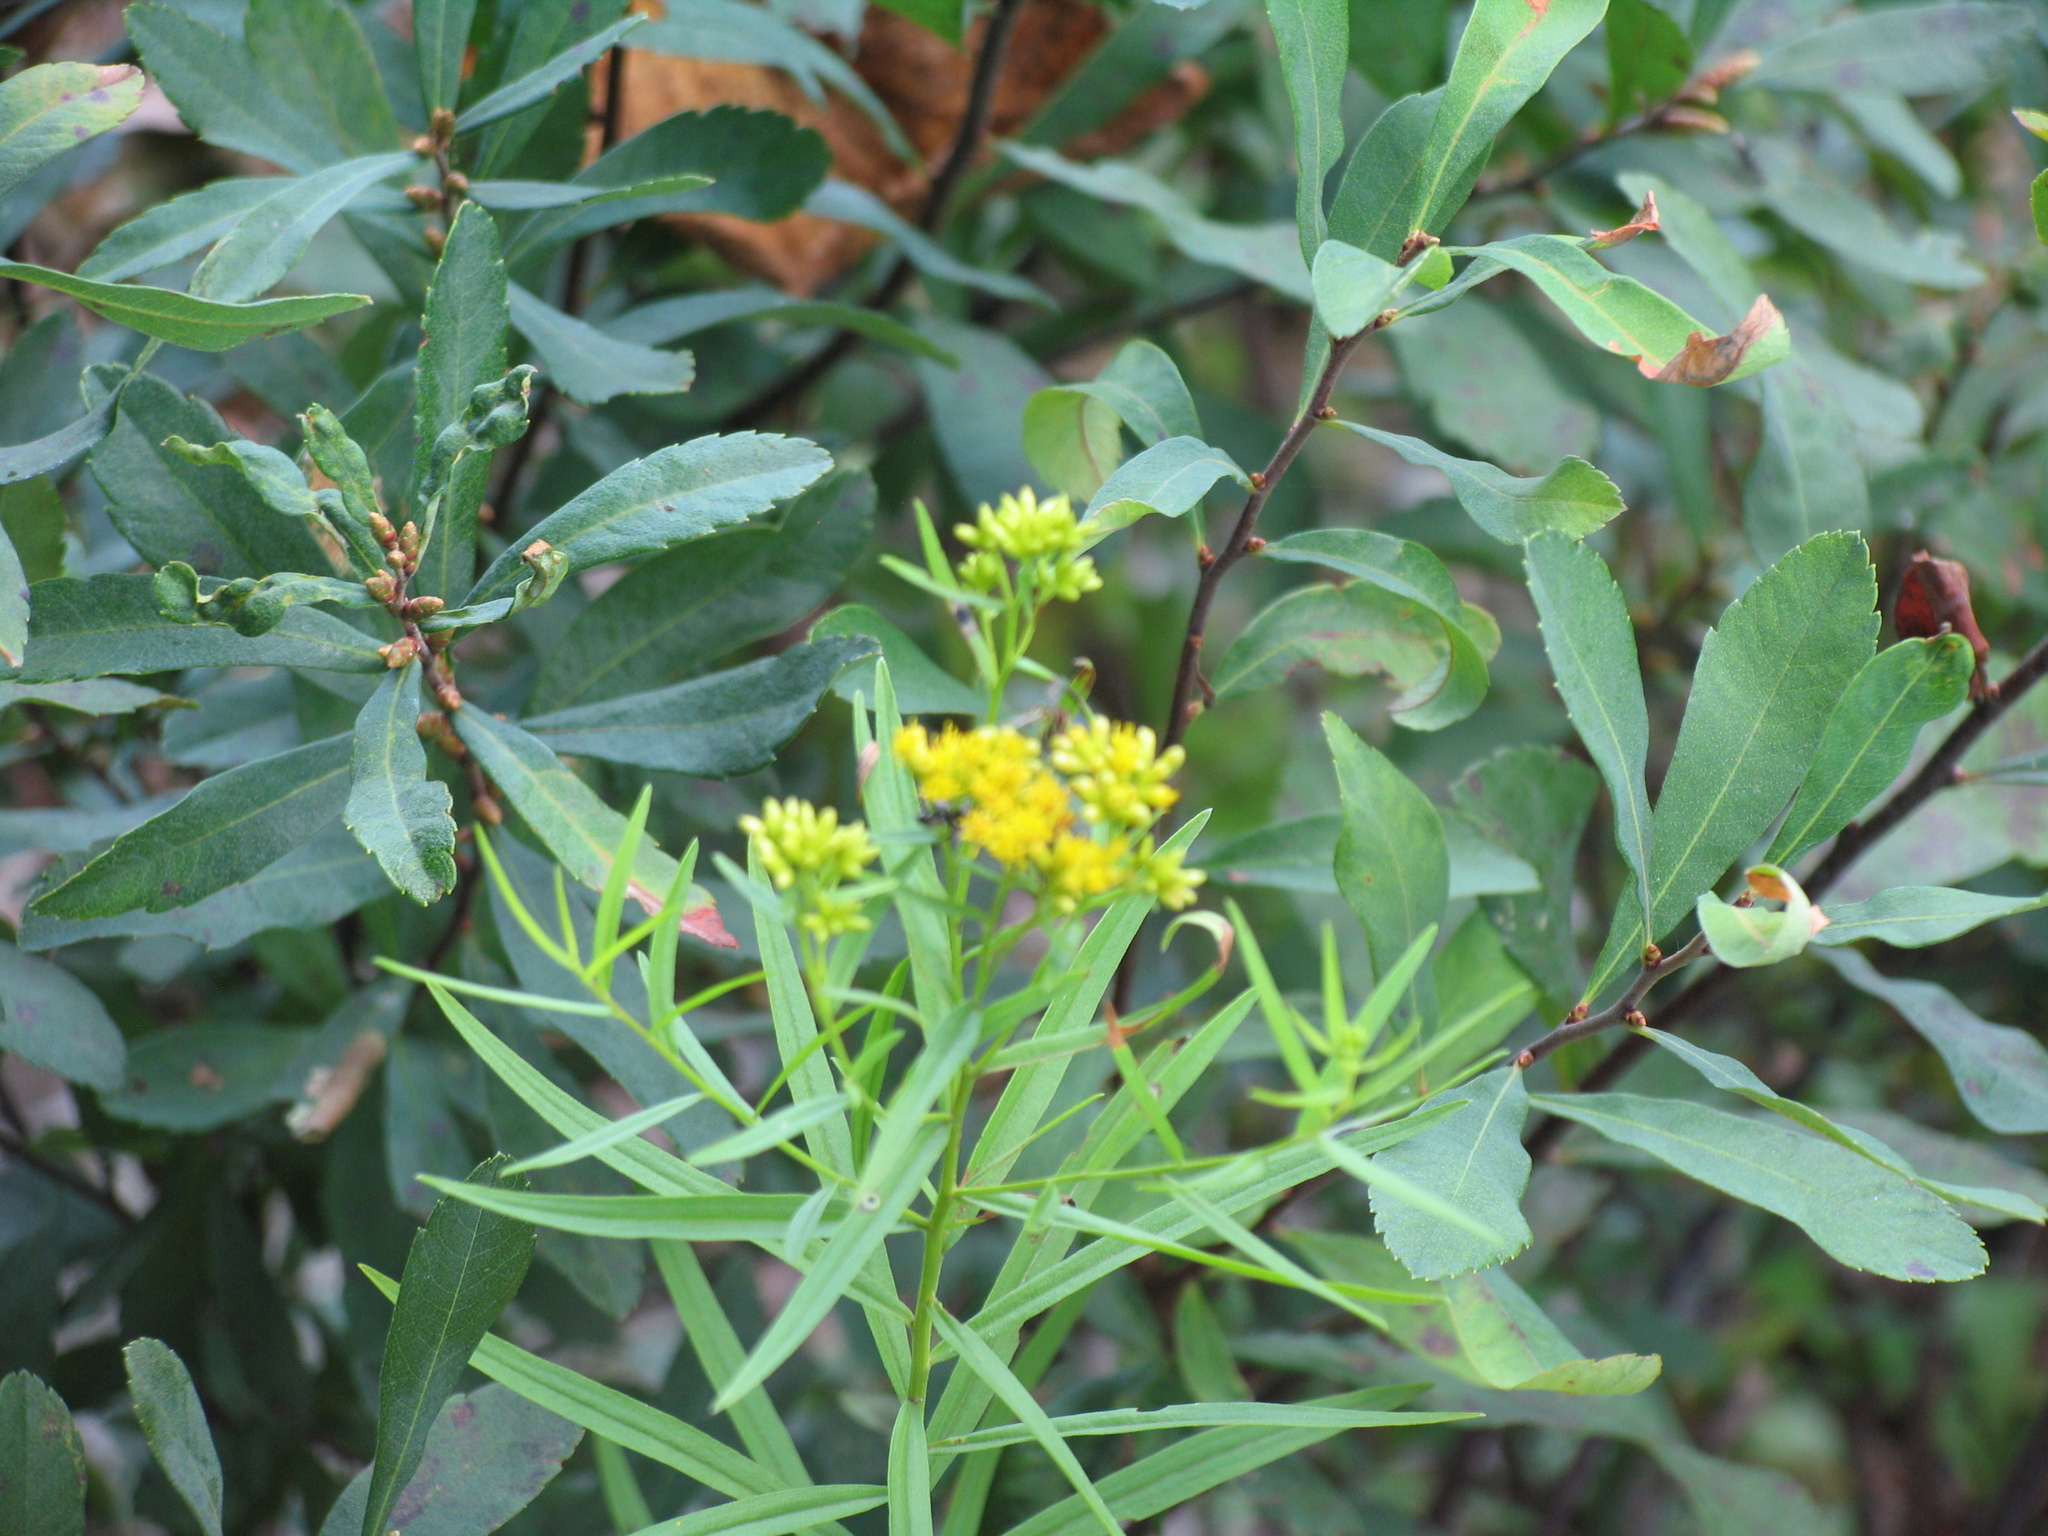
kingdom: Plantae
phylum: Tracheophyta
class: Magnoliopsida
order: Fagales
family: Myricaceae
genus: Myrica
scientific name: Myrica gale
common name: Sweet gale
